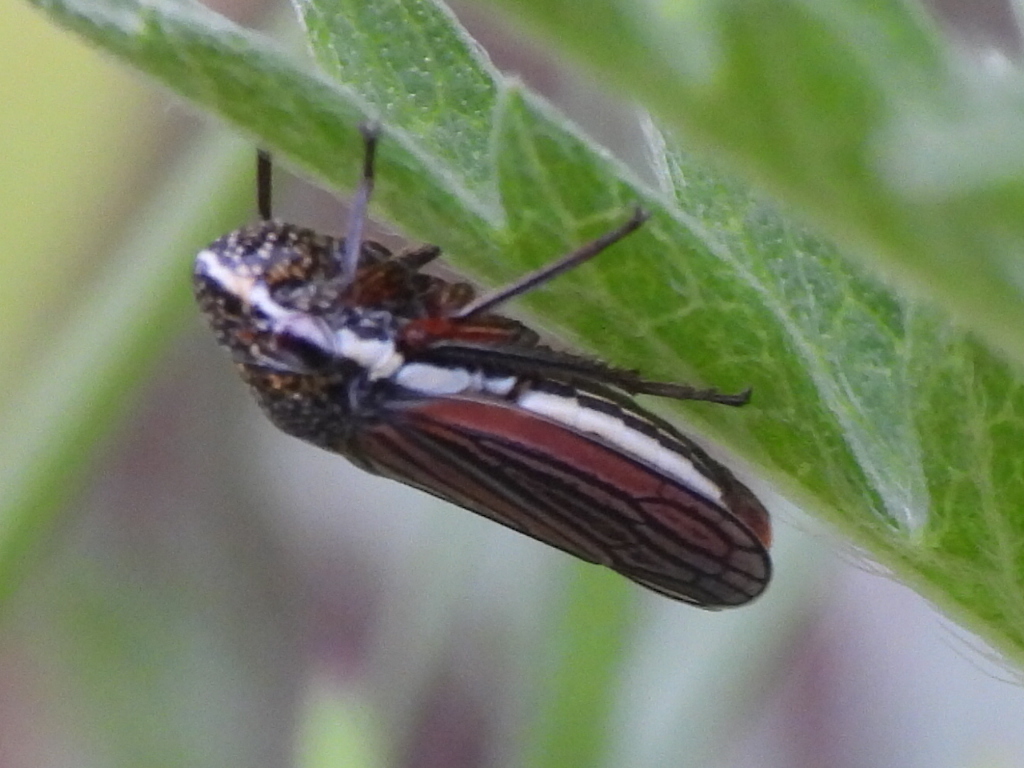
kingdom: Animalia
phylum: Arthropoda
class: Insecta
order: Hemiptera
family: Cicadellidae
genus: Cuerna
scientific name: Cuerna costalis
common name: Lateral-lined sharpshooter
